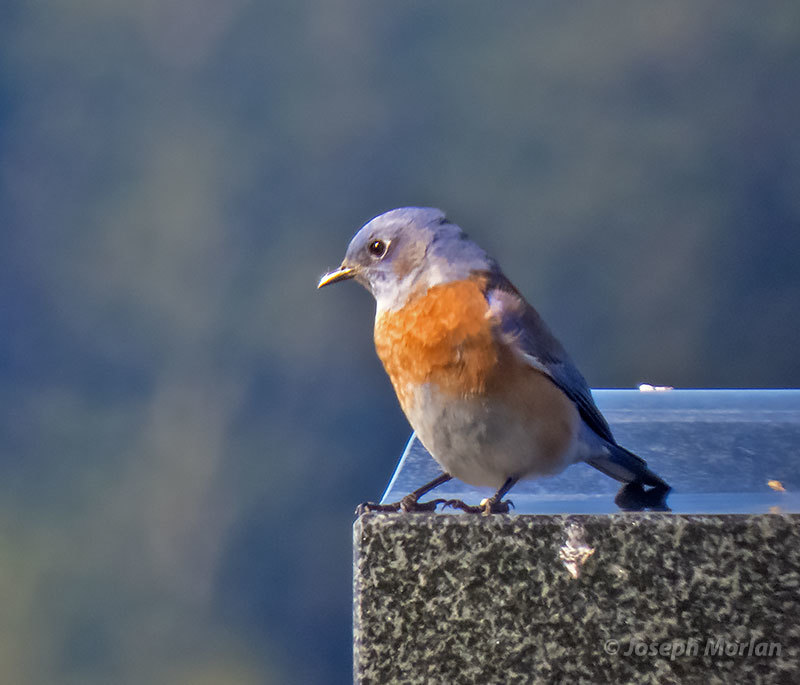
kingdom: Animalia
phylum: Chordata
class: Aves
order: Passeriformes
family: Turdidae
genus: Sialia
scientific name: Sialia mexicana
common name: Western bluebird
